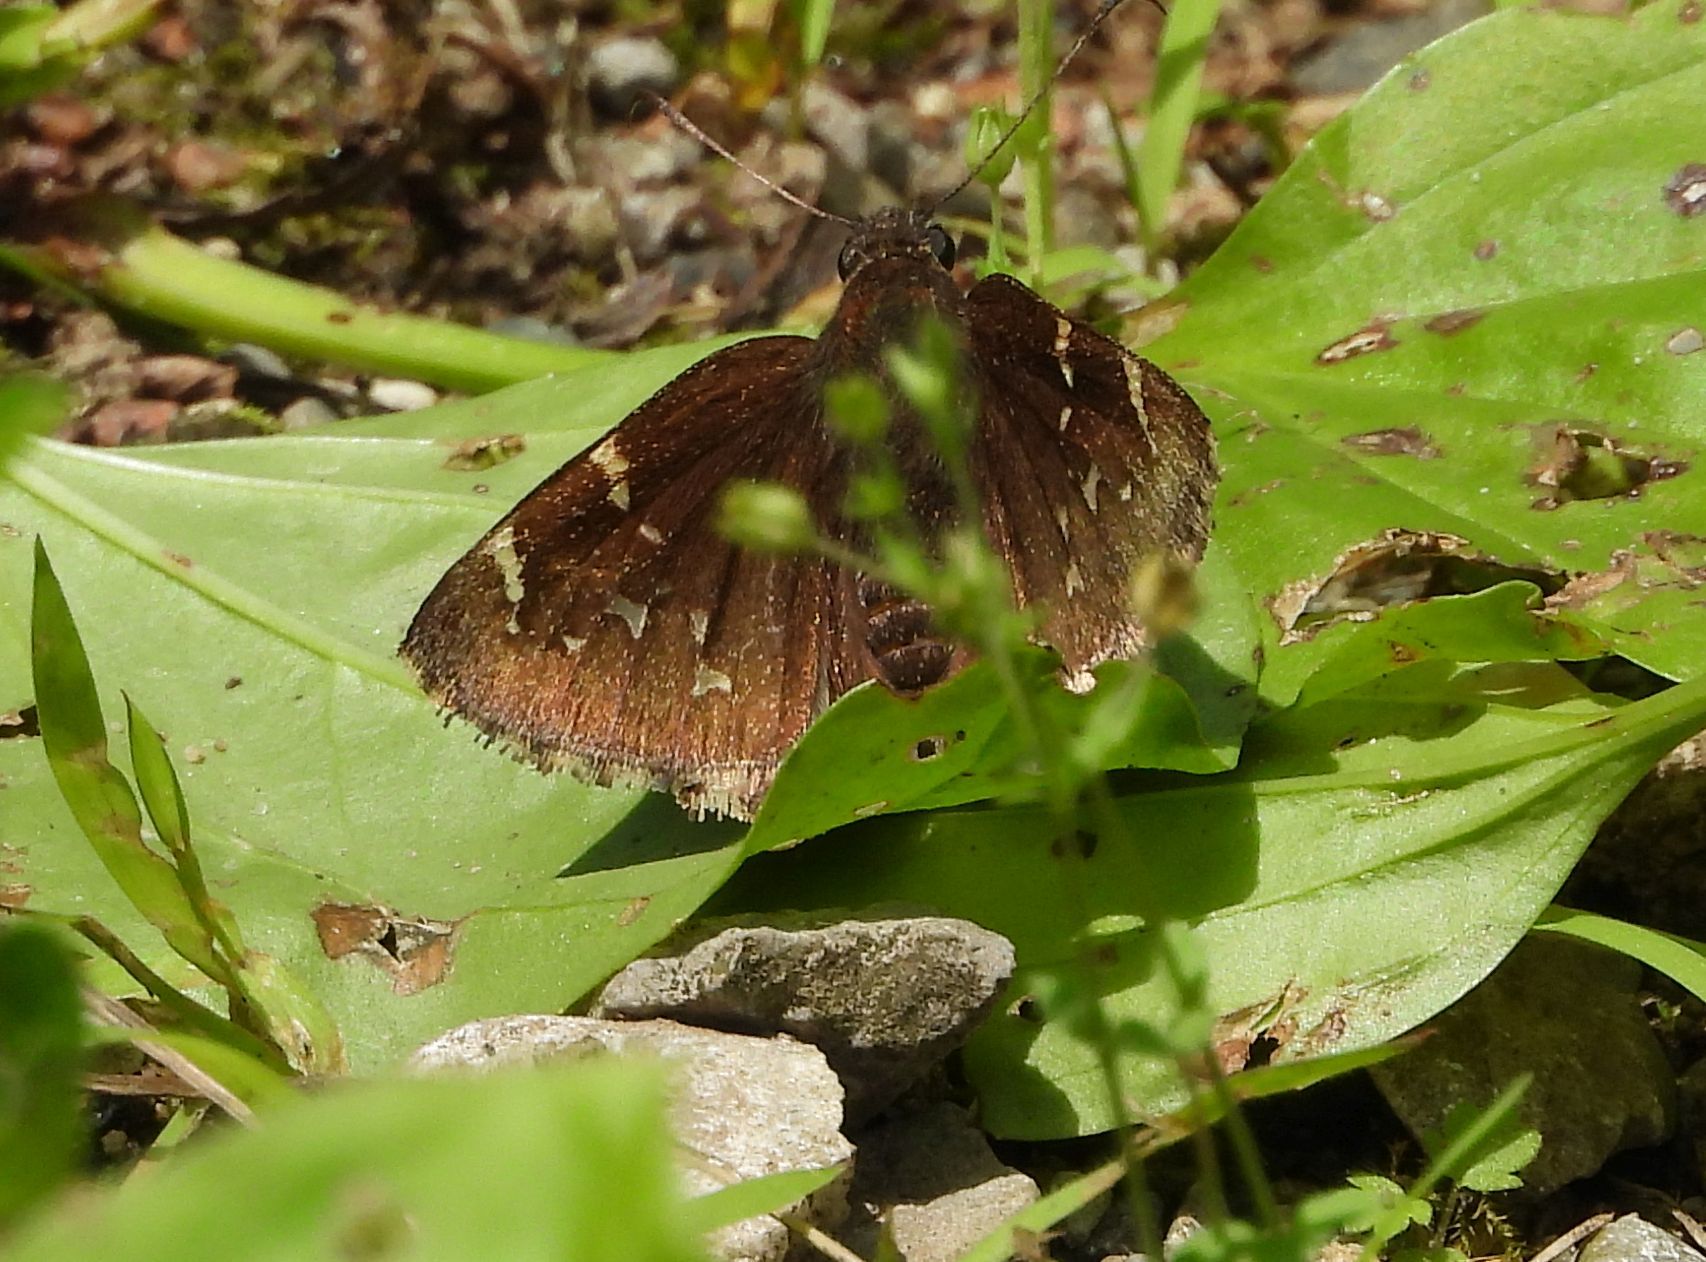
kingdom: Animalia
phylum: Arthropoda
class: Insecta
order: Lepidoptera
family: Hesperiidae
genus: Thorybes
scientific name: Thorybes pylades
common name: Northern cloudywing
